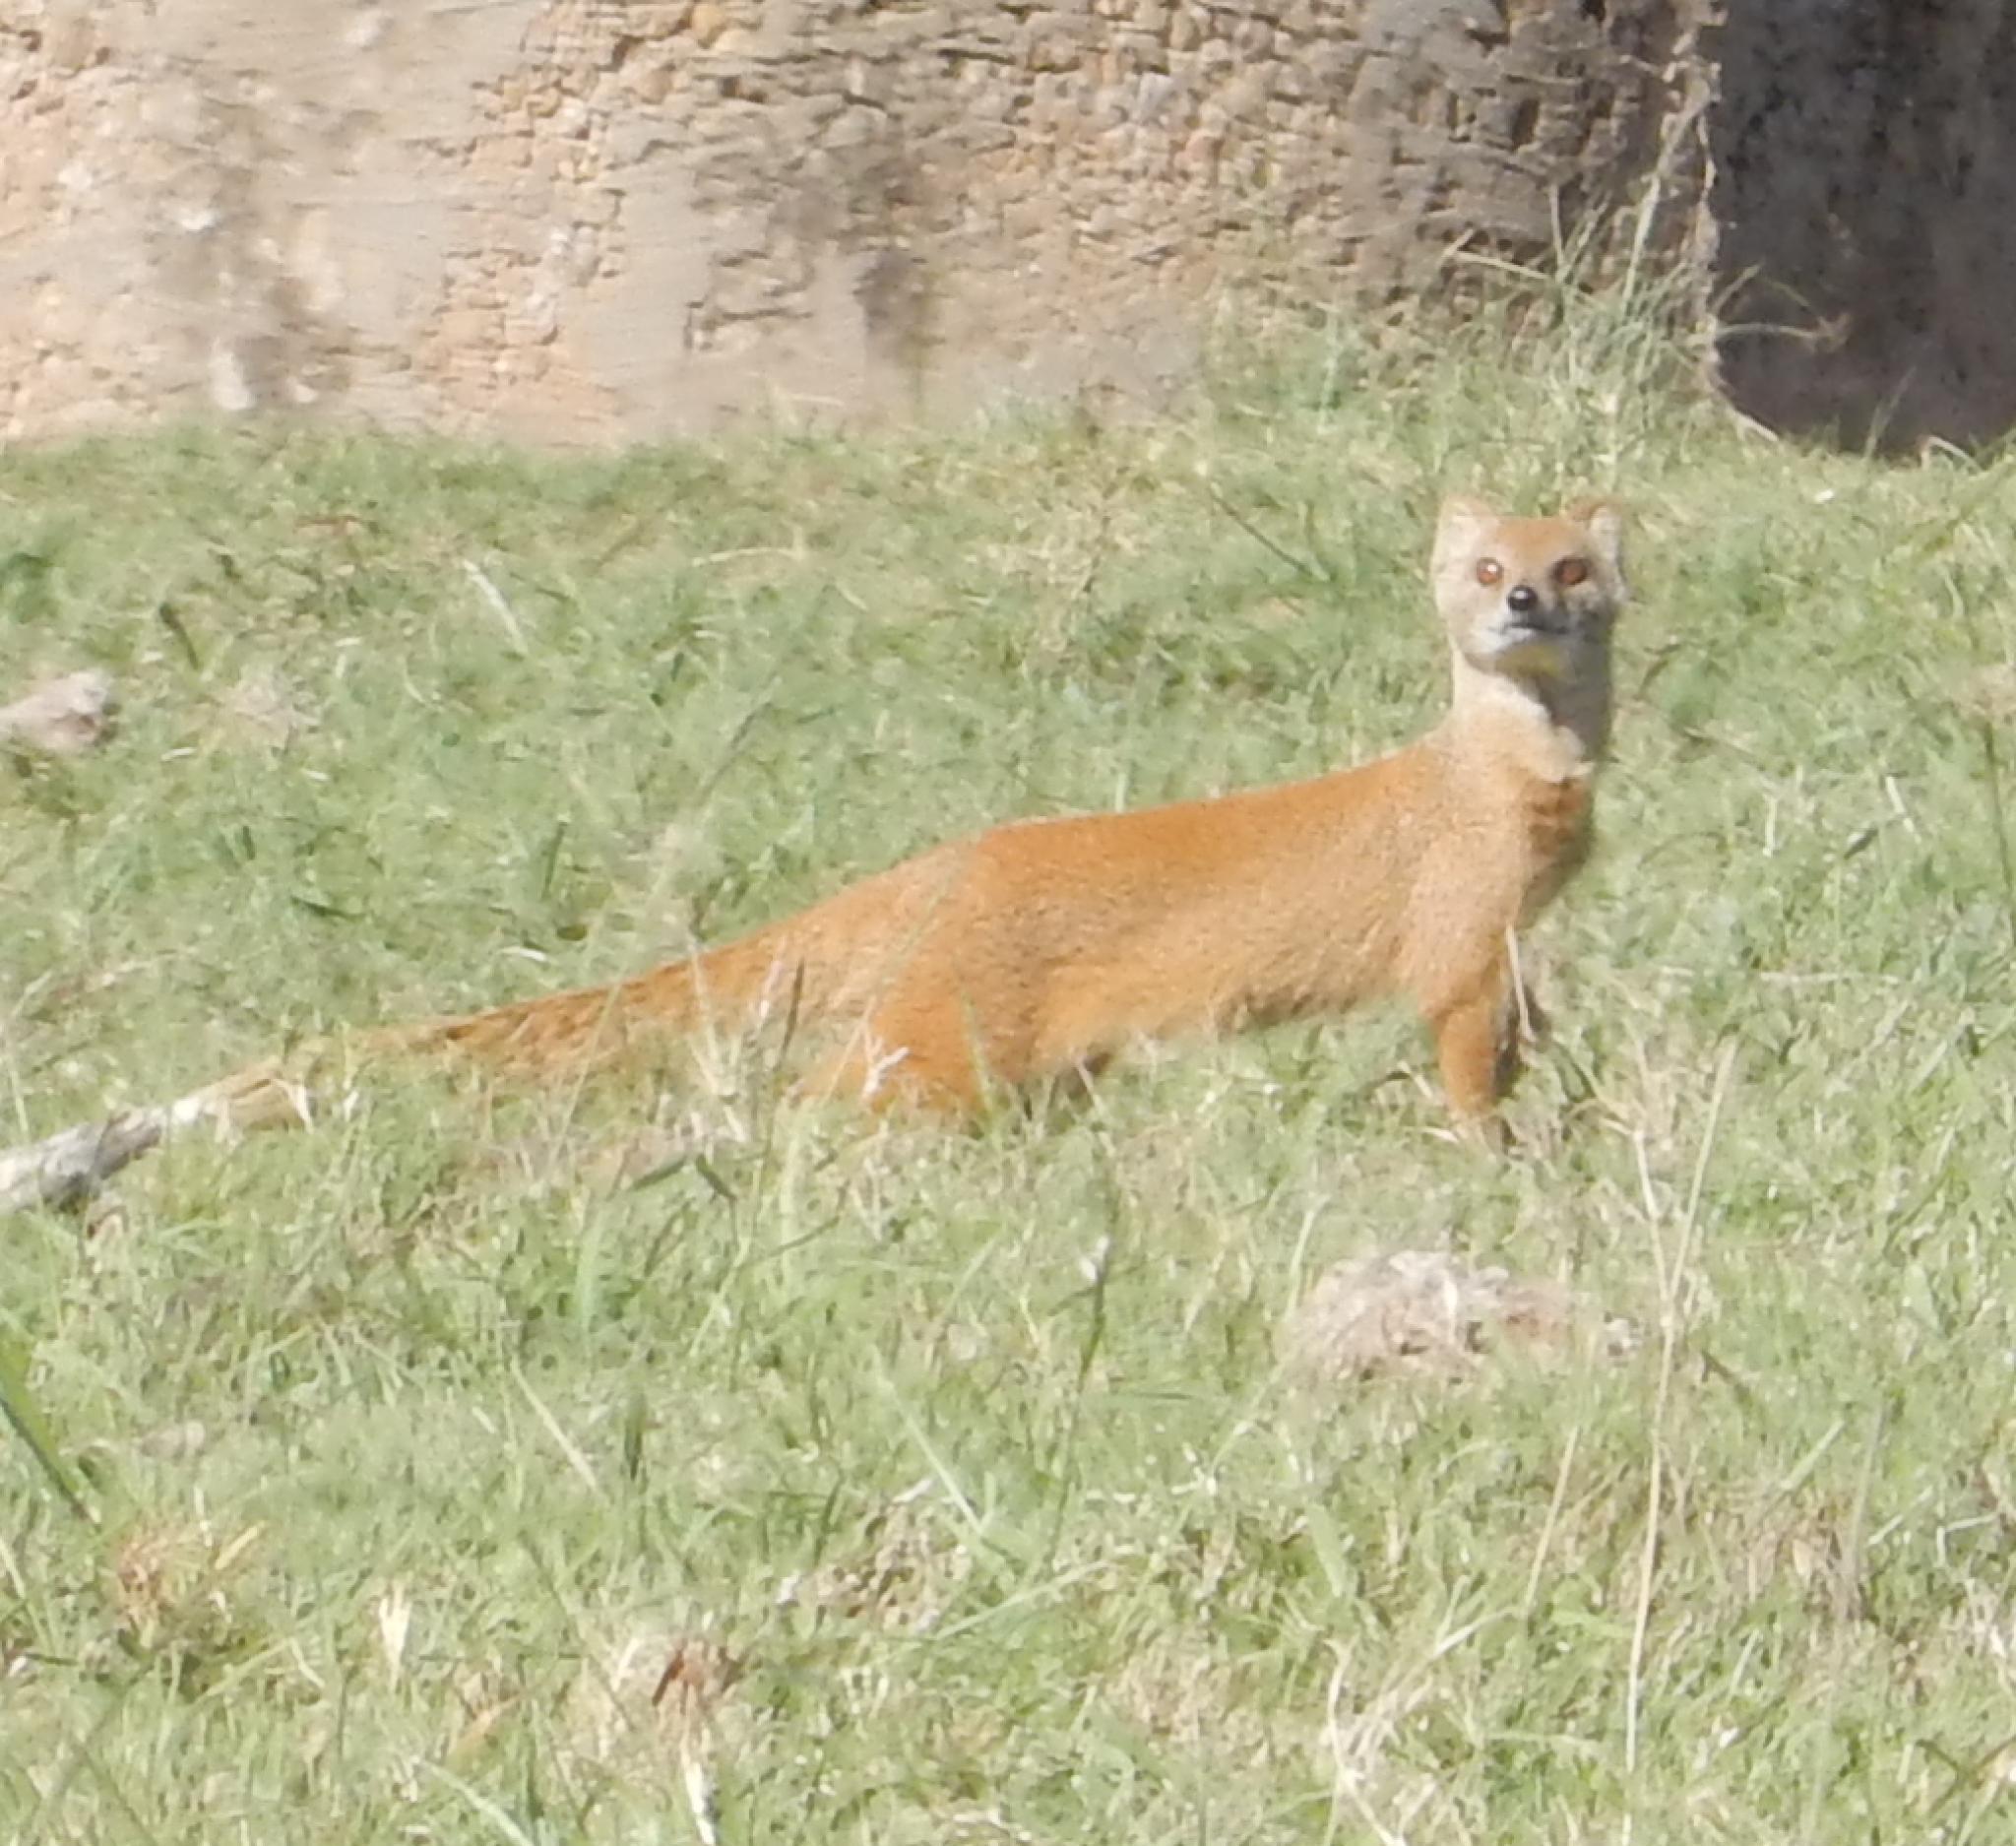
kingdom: Animalia
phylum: Chordata
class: Mammalia
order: Carnivora
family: Herpestidae
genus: Cynictis
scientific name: Cynictis penicillata
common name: Yellow mongoose
